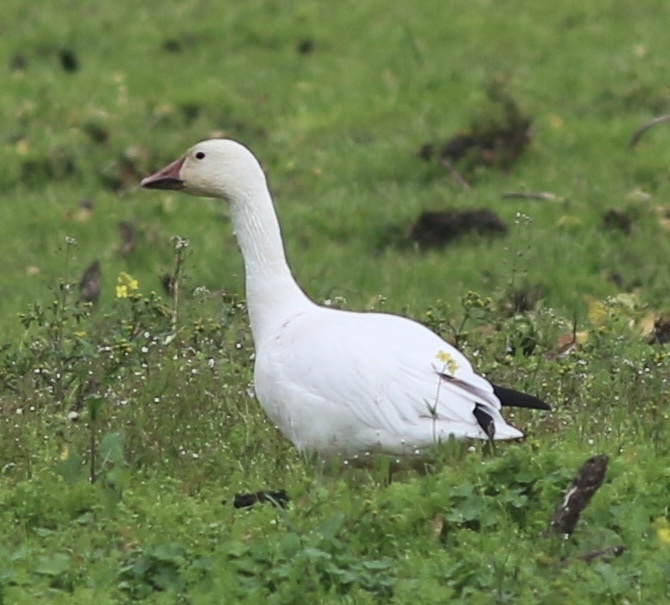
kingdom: Animalia
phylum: Chordata
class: Aves
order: Anseriformes
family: Anatidae
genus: Anser
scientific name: Anser caerulescens
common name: Snow goose
